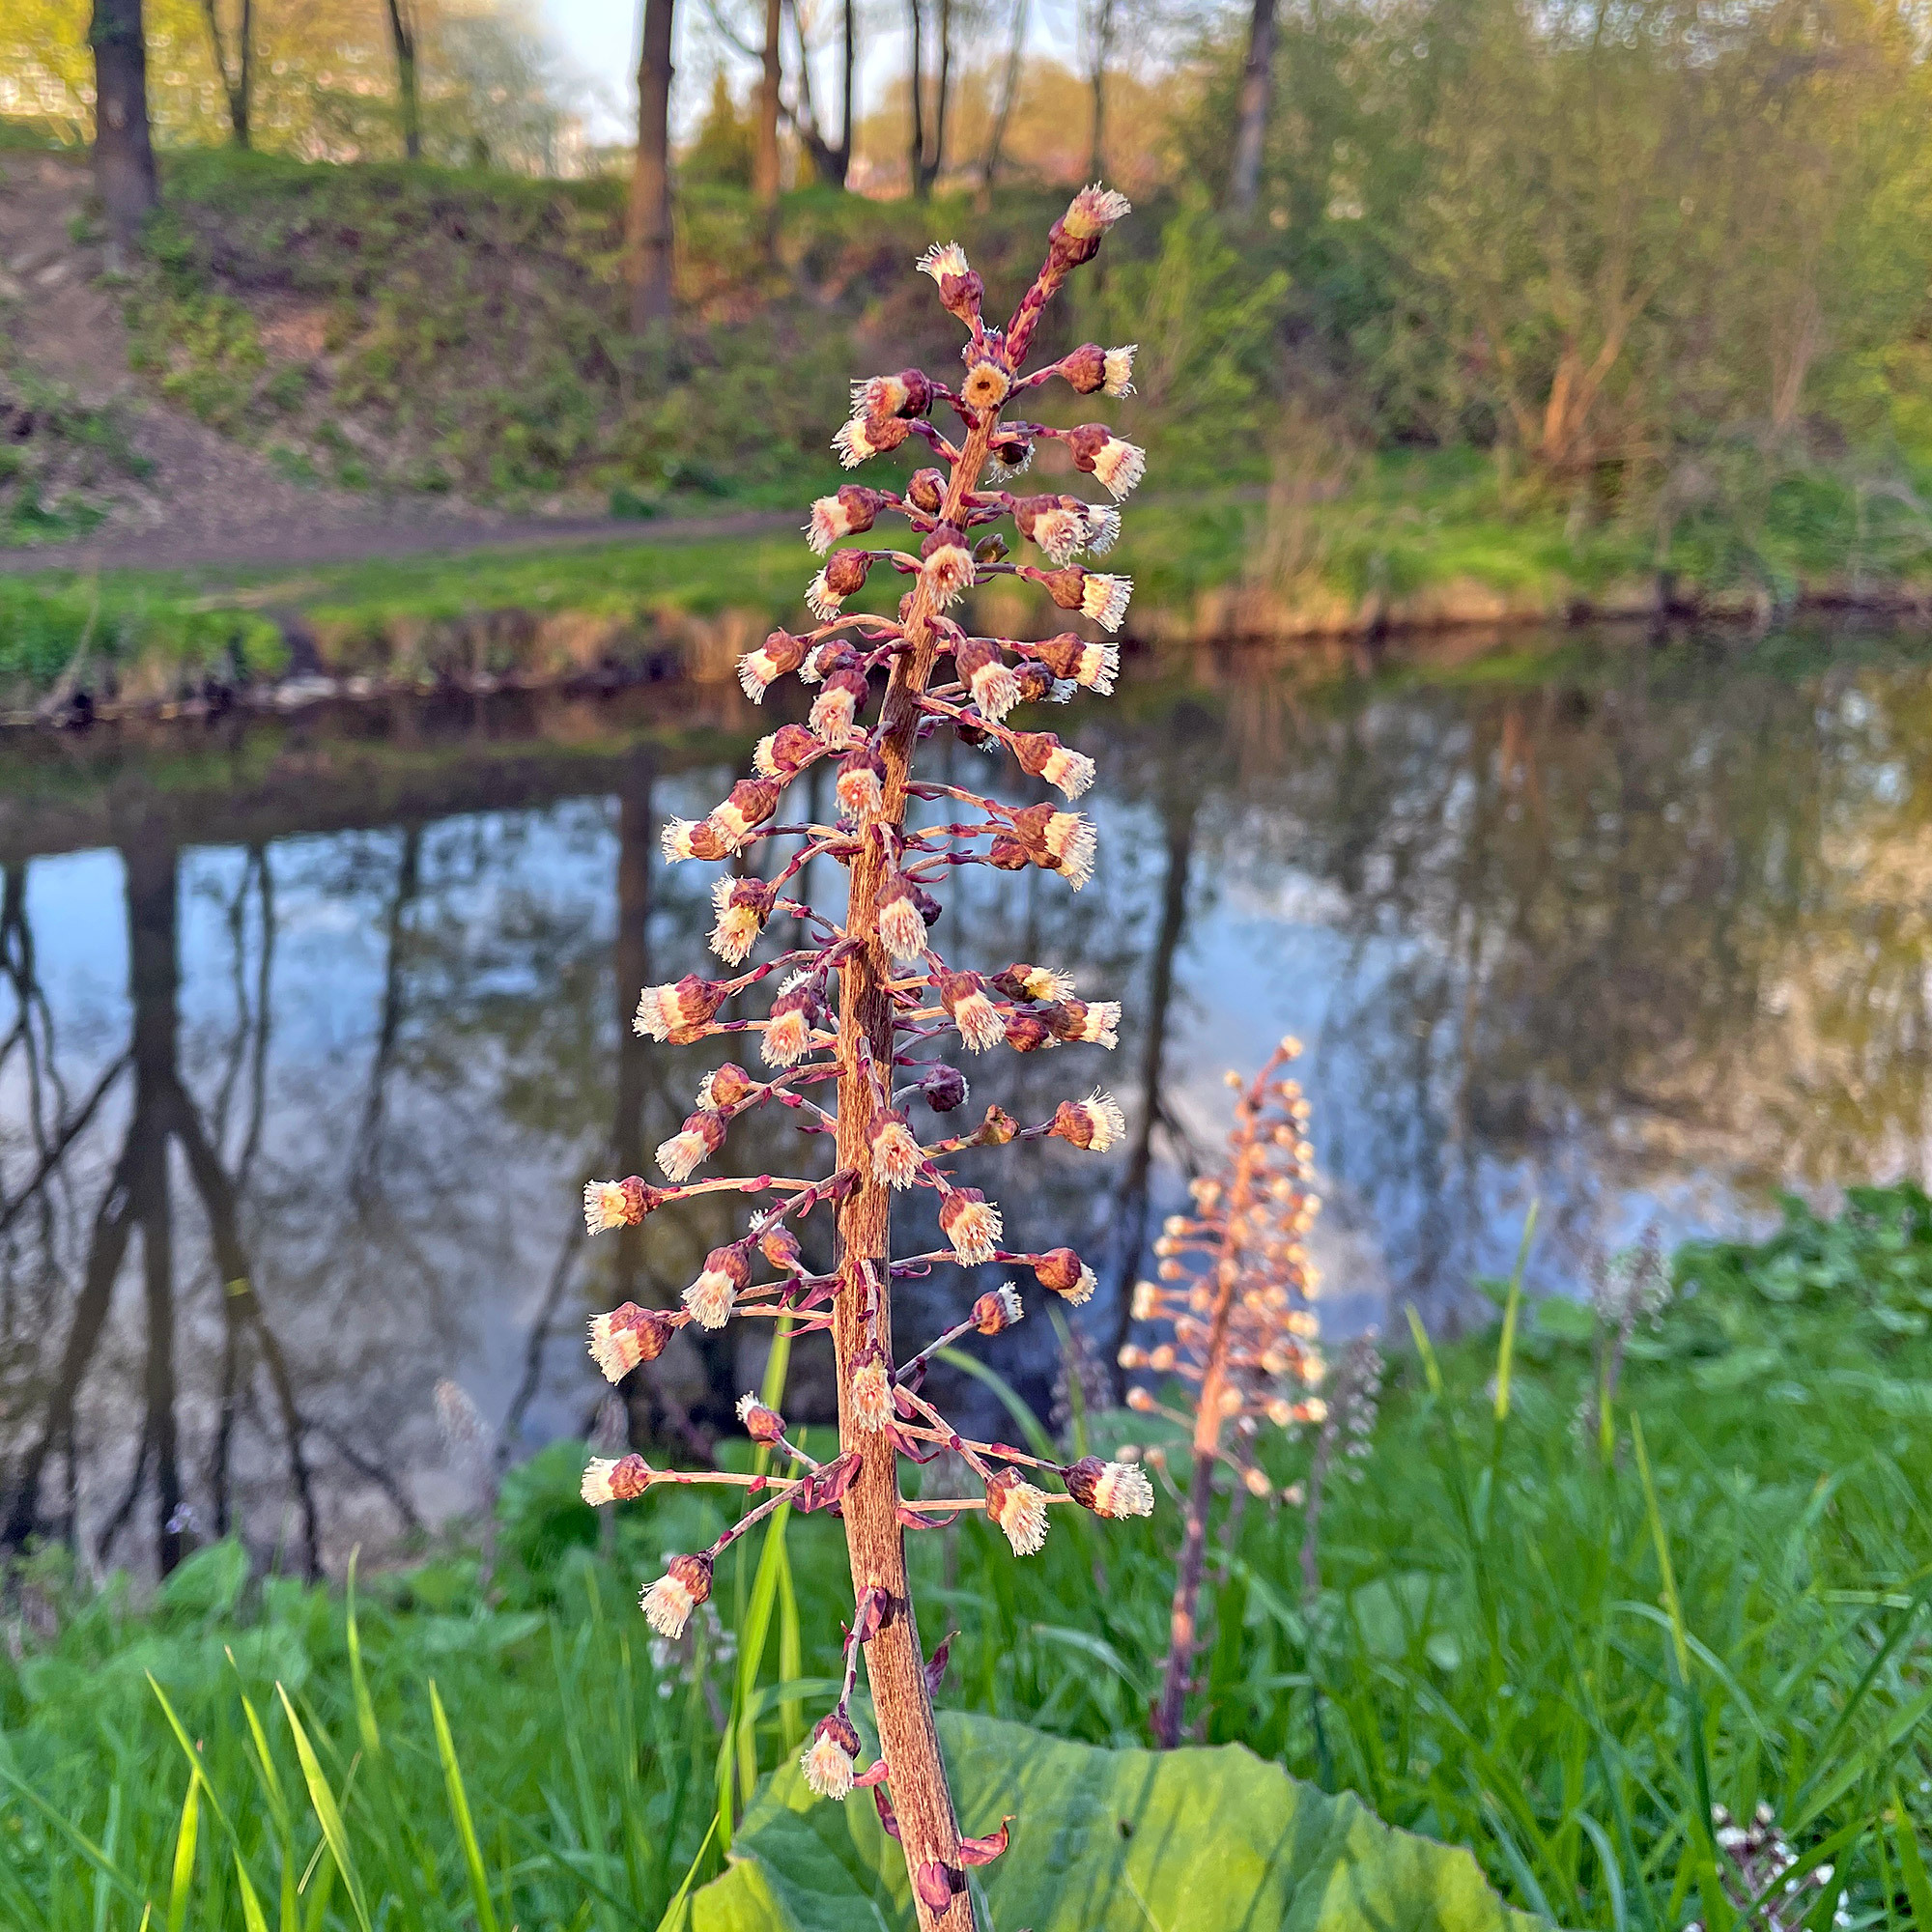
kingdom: Plantae
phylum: Tracheophyta
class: Magnoliopsida
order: Asterales
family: Asteraceae
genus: Petasites
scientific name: Petasites hybridus
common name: Butterbur
